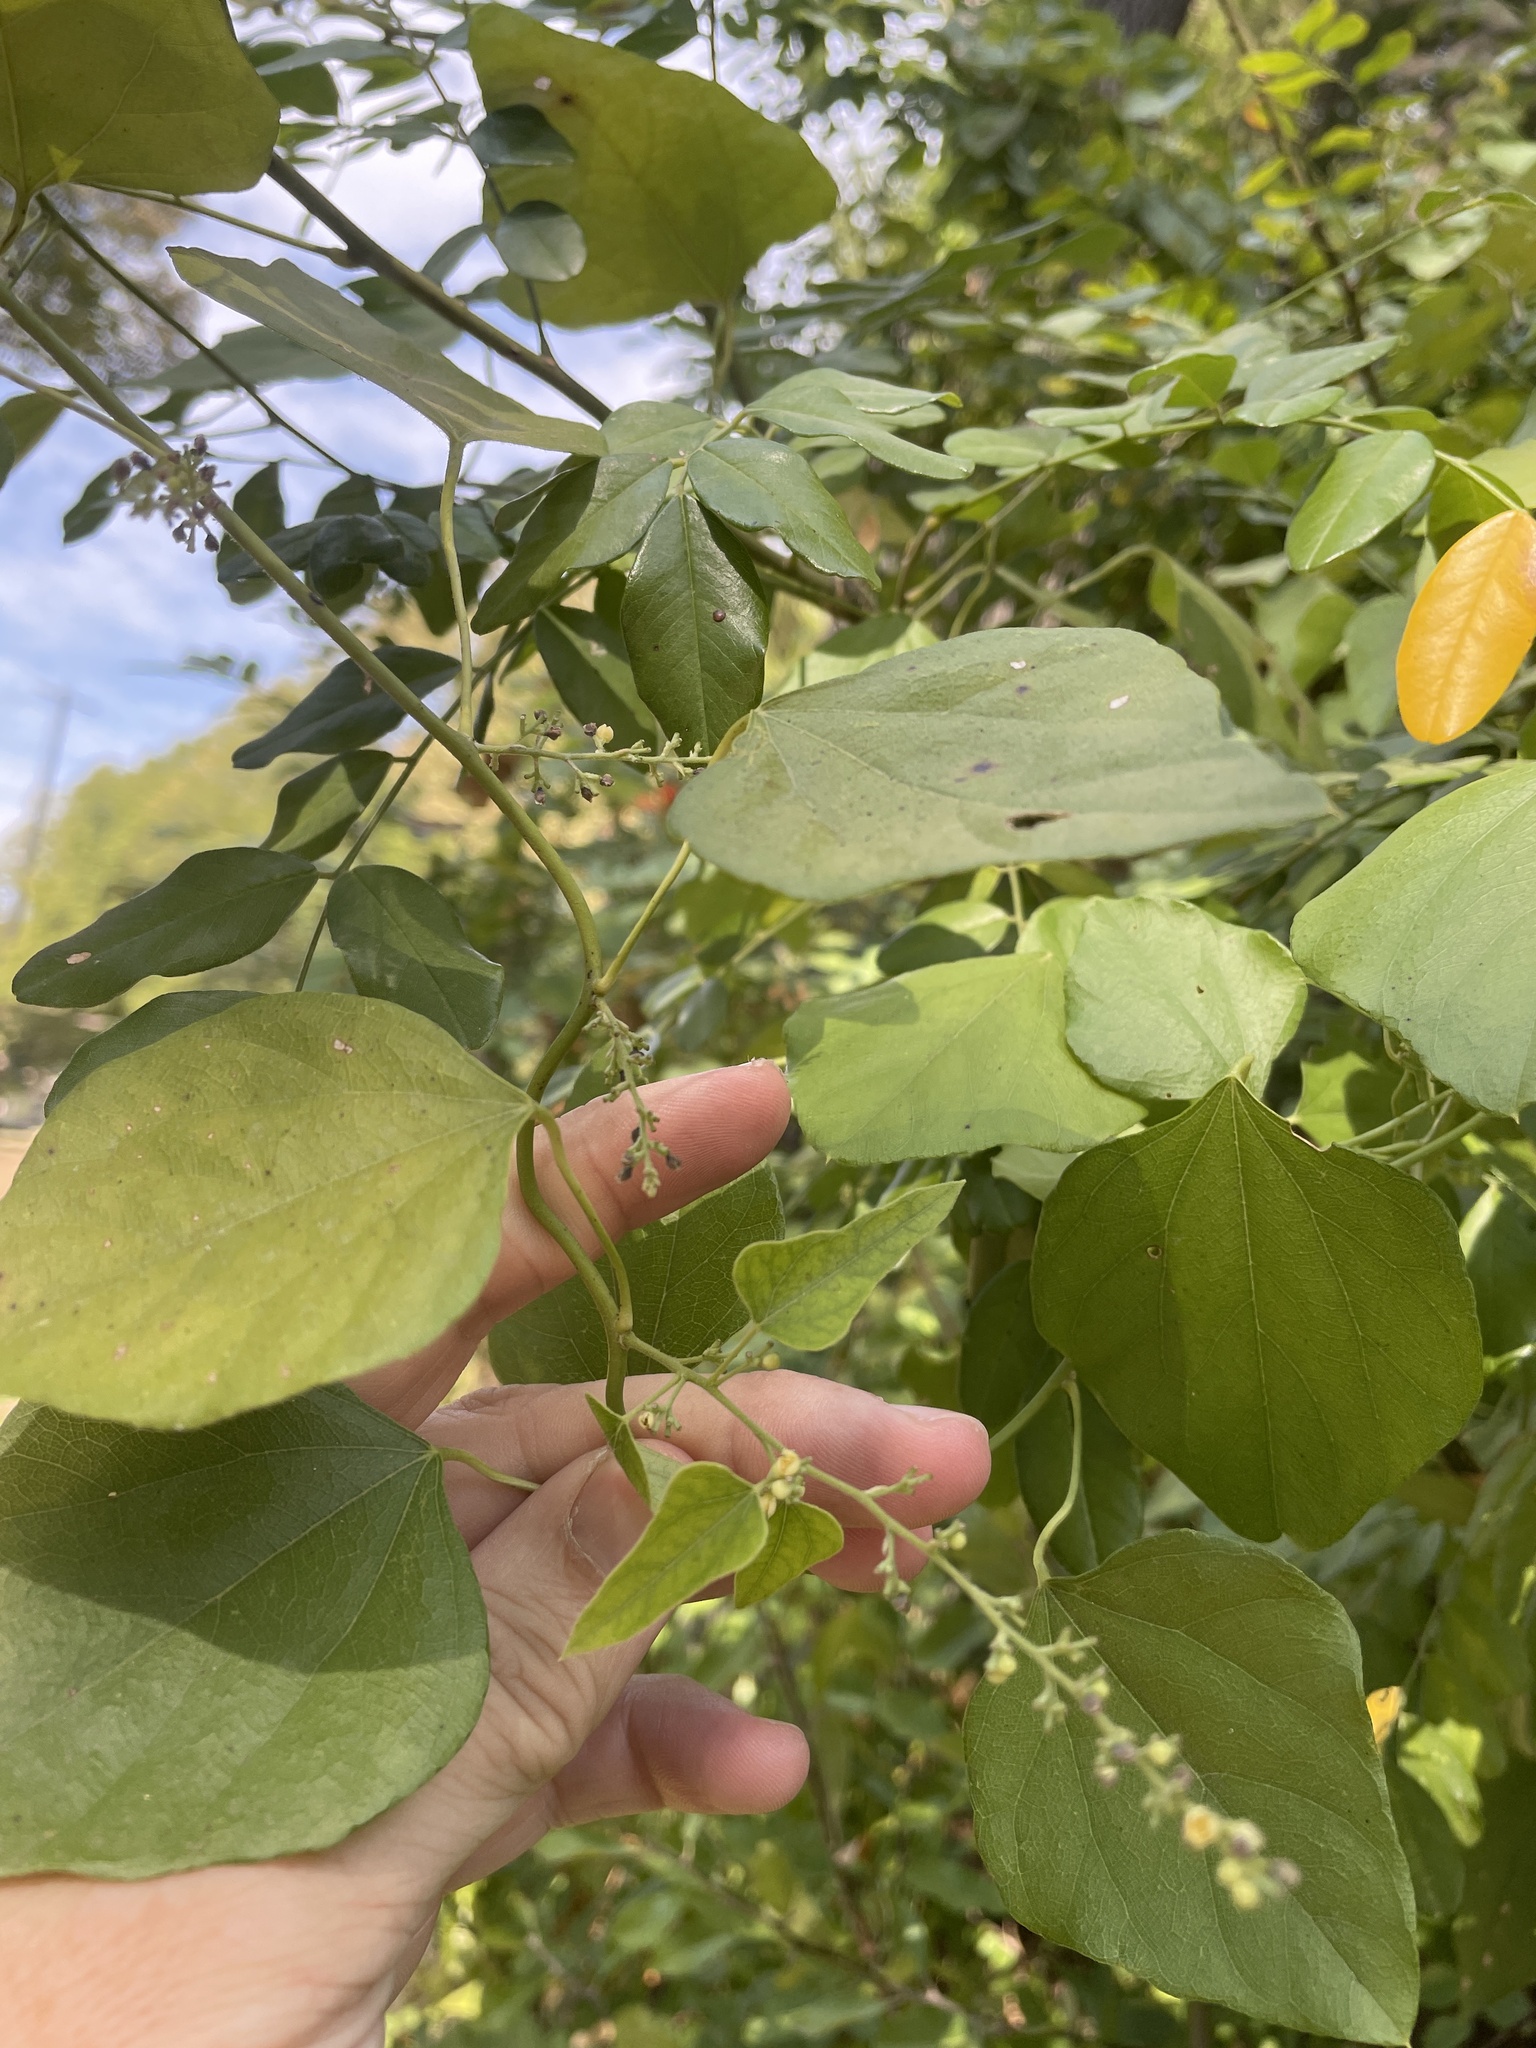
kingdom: Plantae
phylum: Tracheophyta
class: Magnoliopsida
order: Ranunculales
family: Menispermaceae
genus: Cocculus
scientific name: Cocculus carolinus
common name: Carolina moonseed
